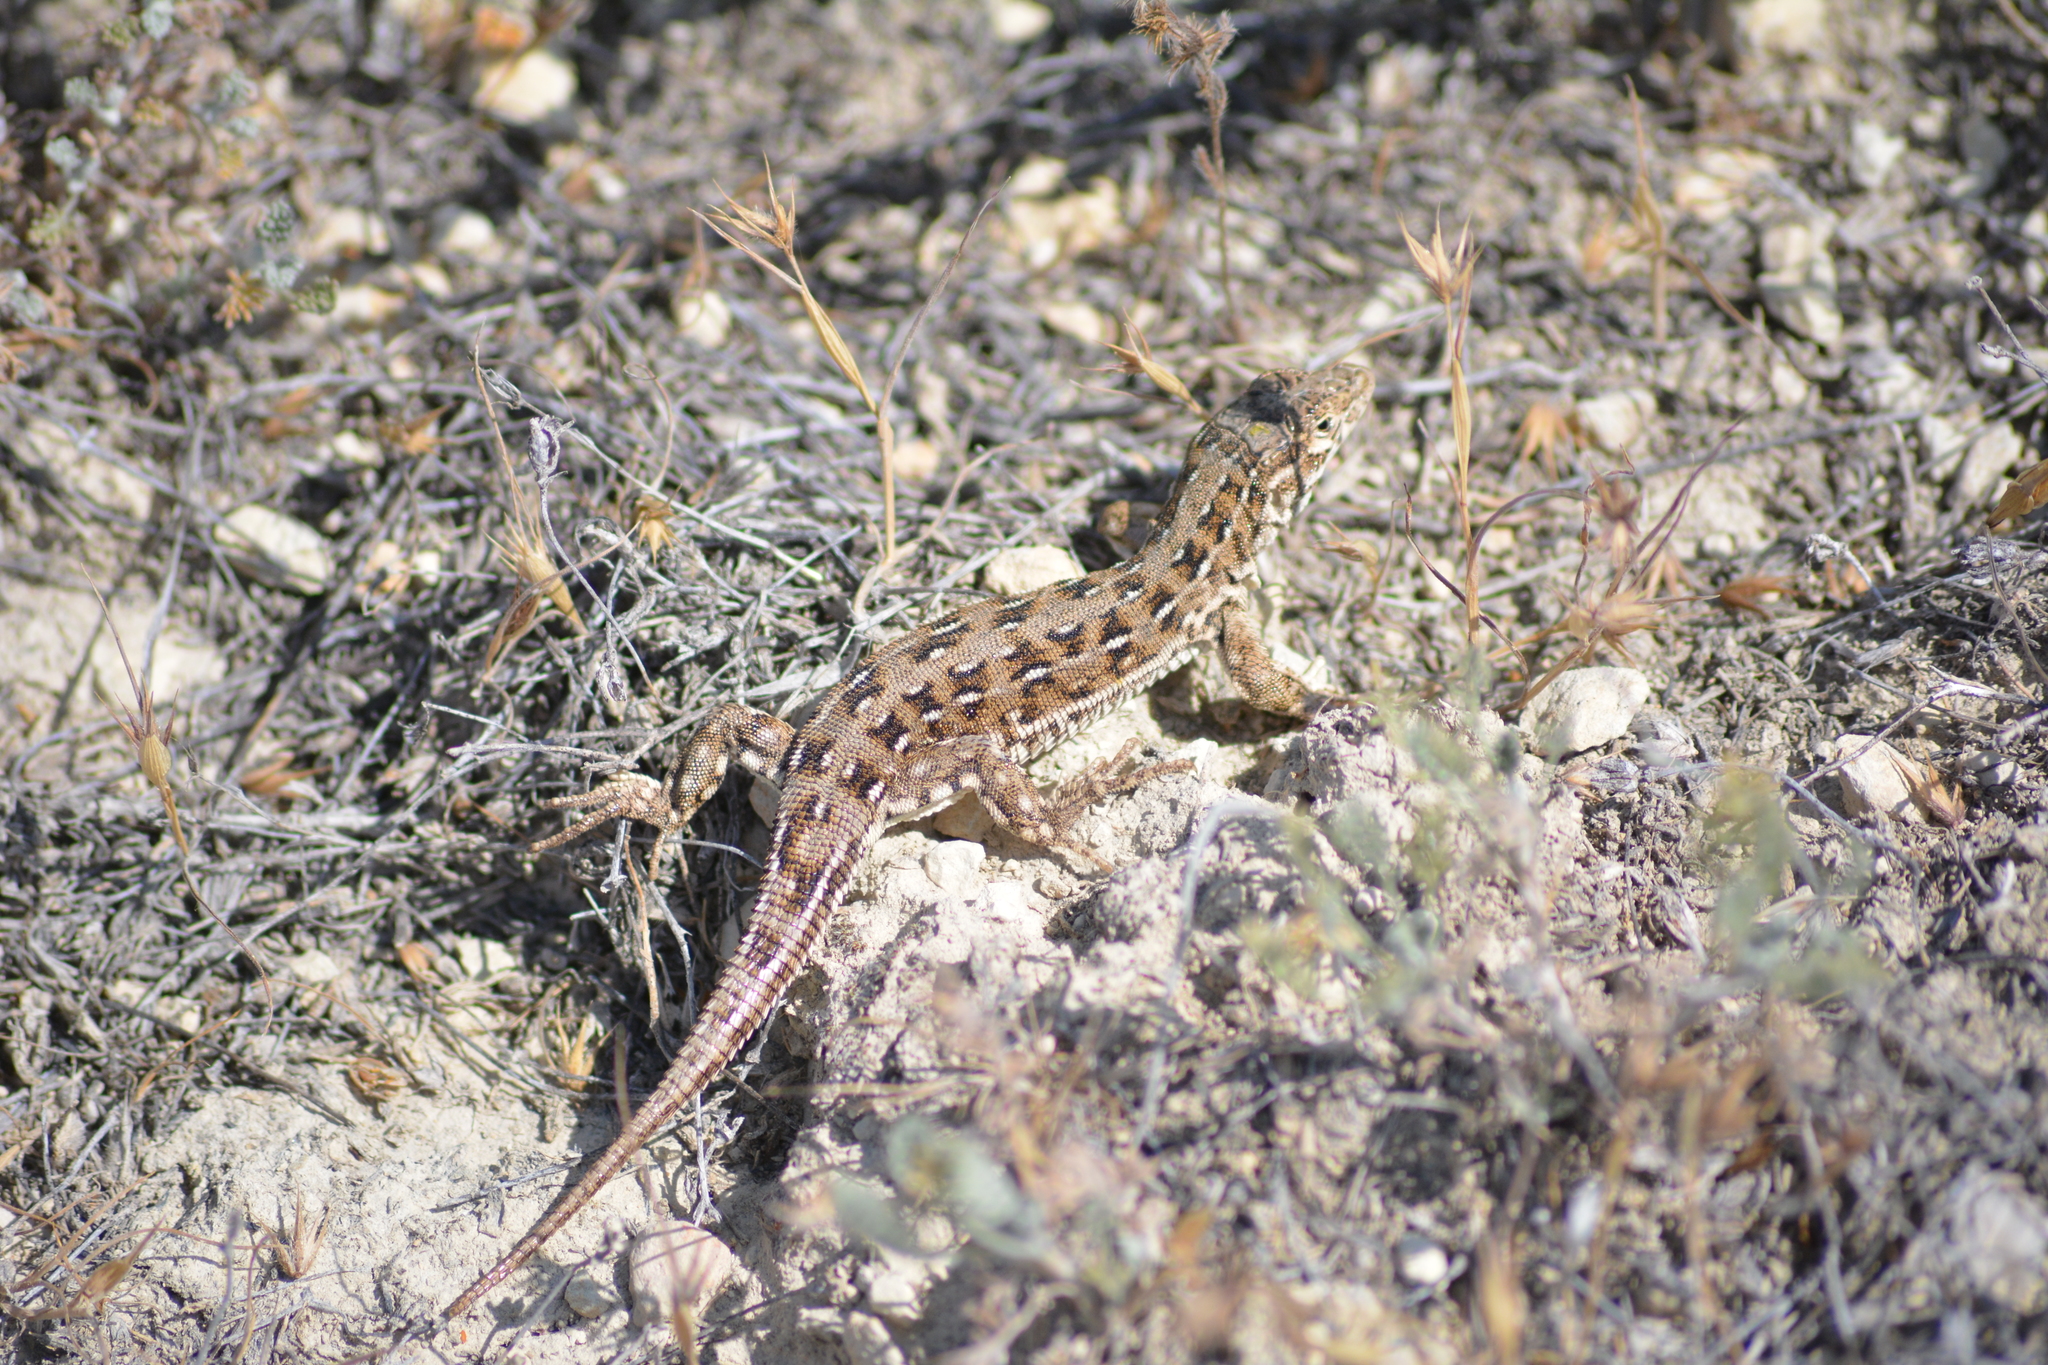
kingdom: Animalia
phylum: Chordata
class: Squamata
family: Lacertidae
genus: Eremias
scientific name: Eremias arguta
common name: Racerunner
